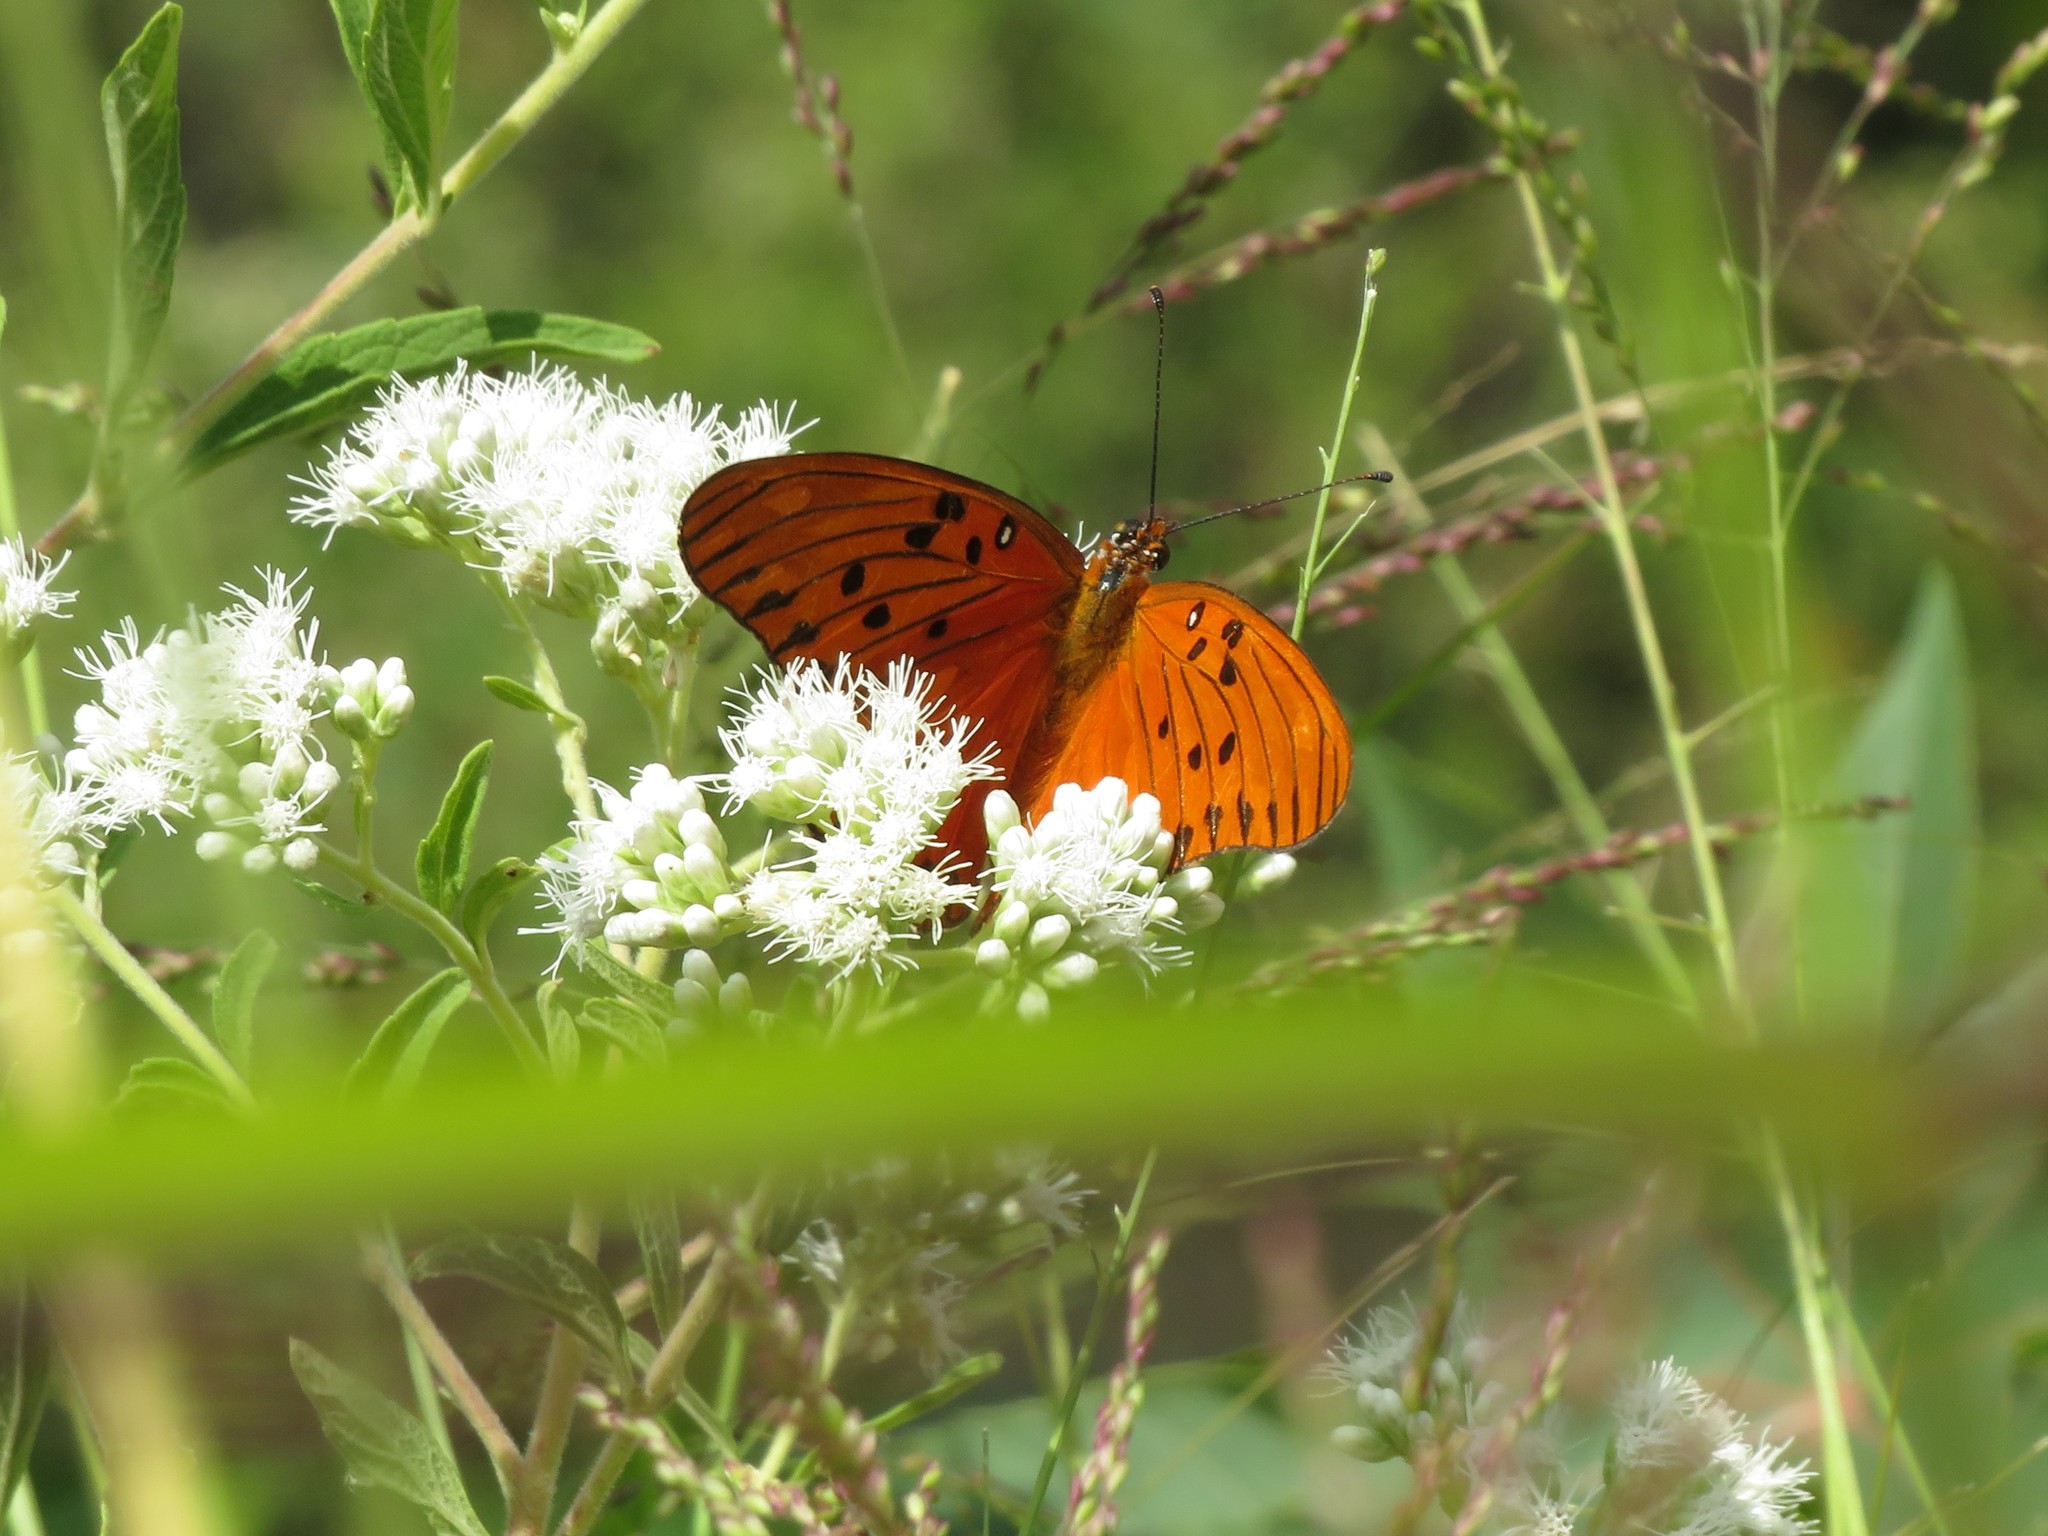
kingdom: Animalia
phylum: Arthropoda
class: Insecta
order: Lepidoptera
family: Nymphalidae
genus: Dione
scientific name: Dione vanillae
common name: Gulf fritillary
